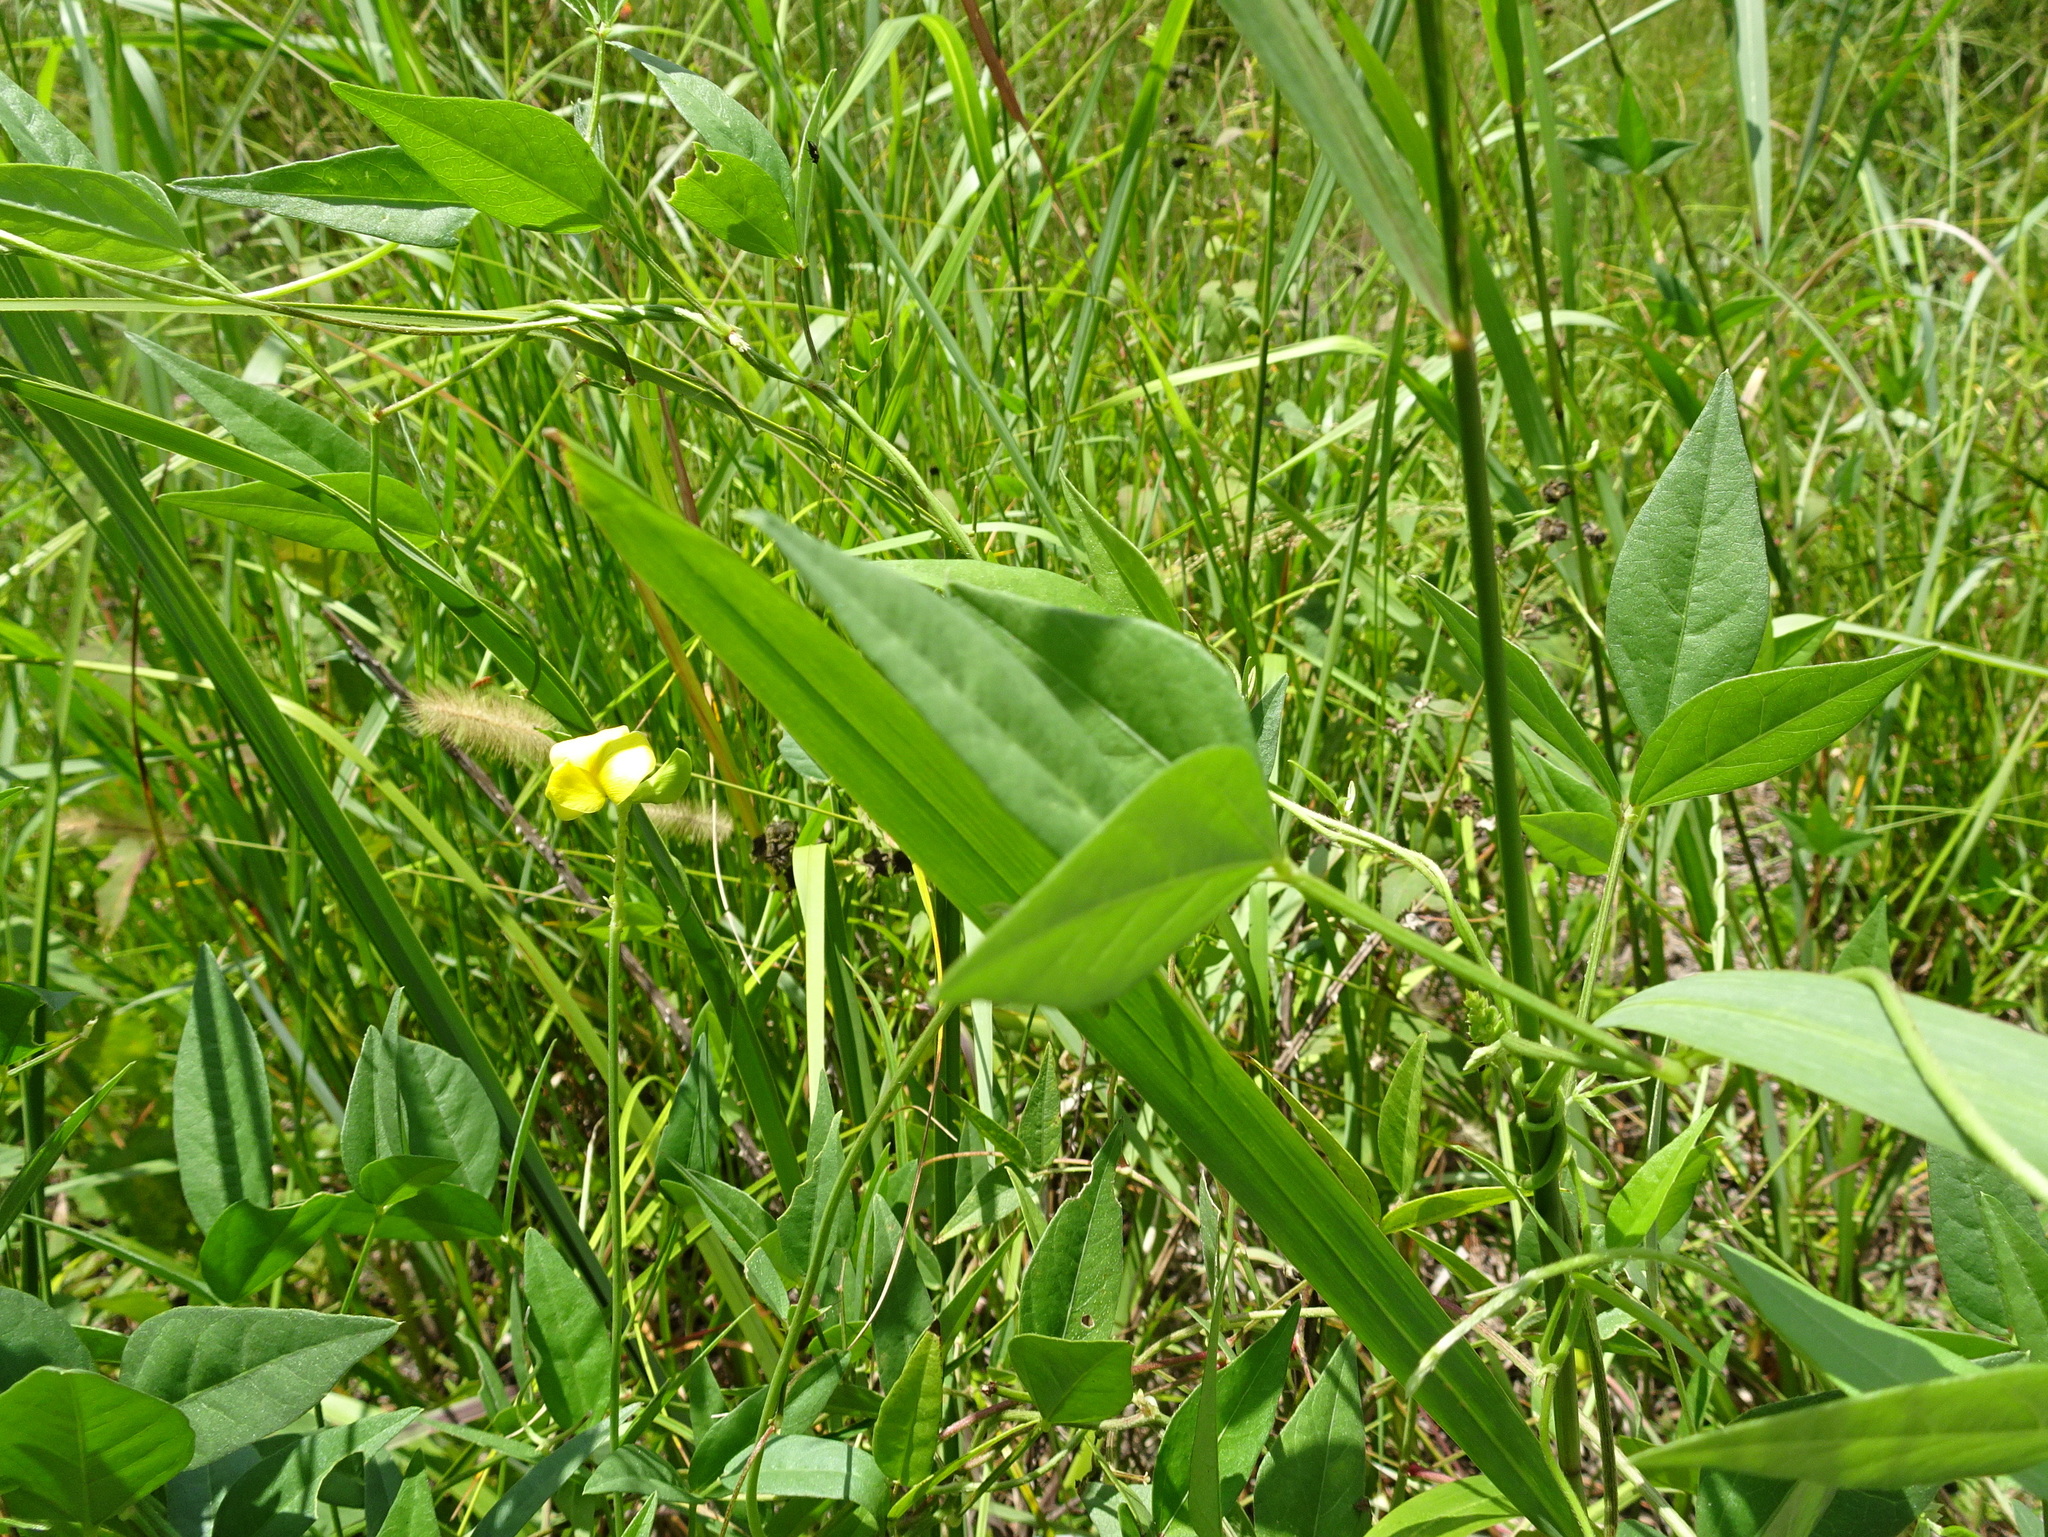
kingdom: Plantae
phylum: Tracheophyta
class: Magnoliopsida
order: Fabales
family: Fabaceae
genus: Vigna
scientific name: Vigna luteola
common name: Hairypod cowpea
